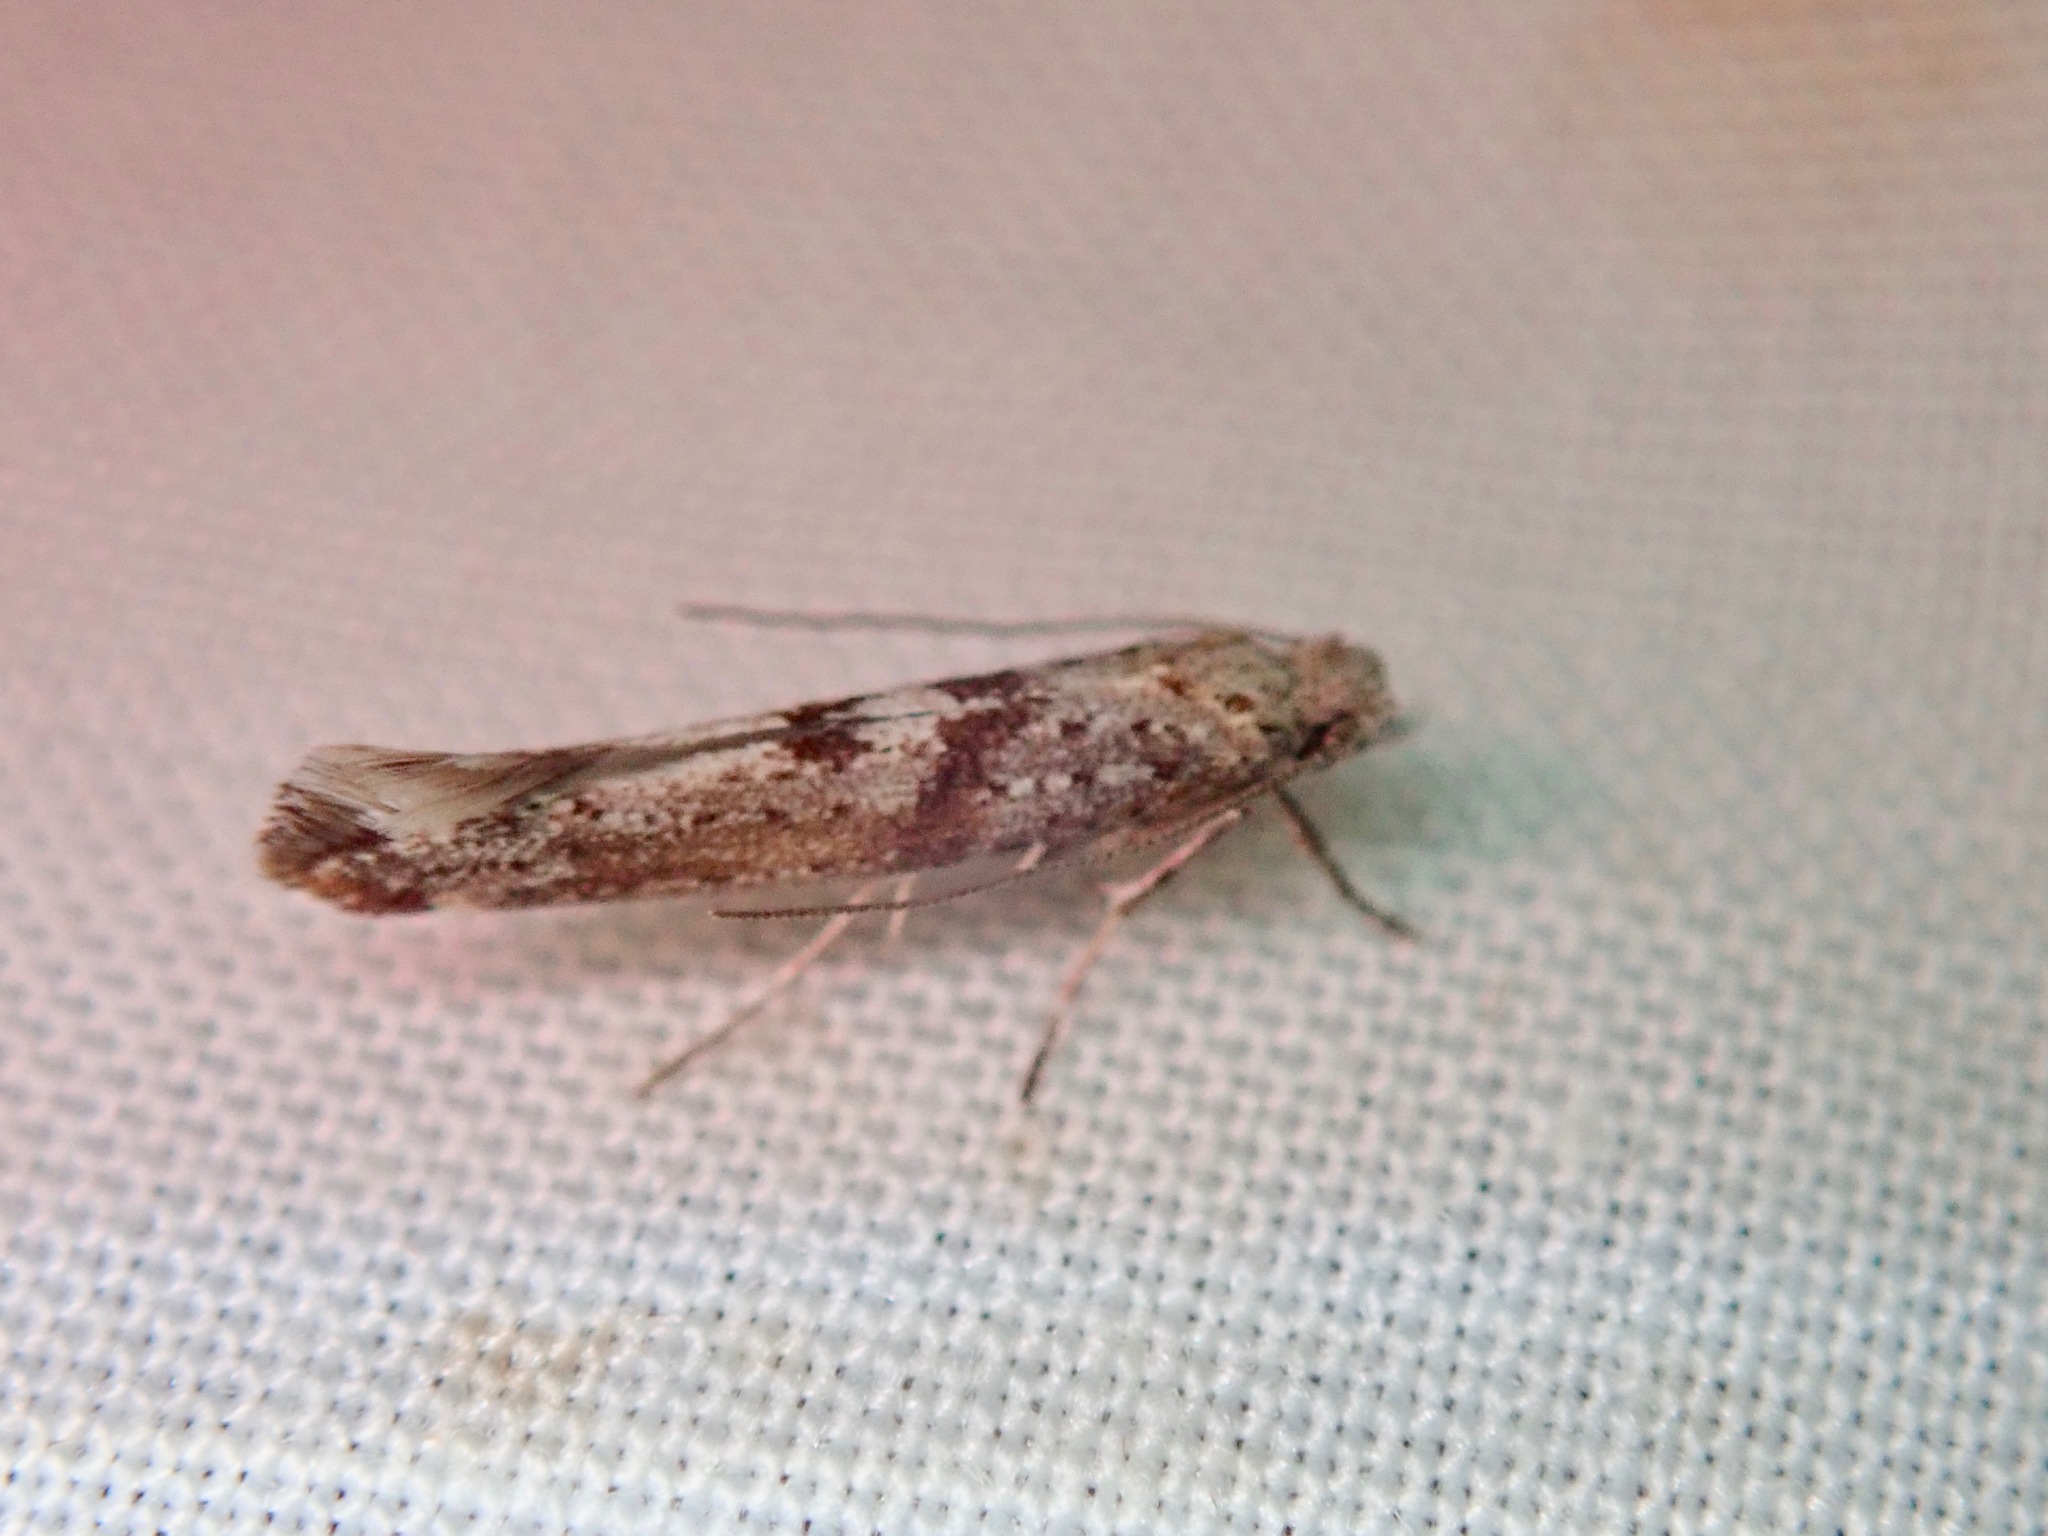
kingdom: Animalia
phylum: Arthropoda
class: Insecta
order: Lepidoptera
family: Yponomeutidae
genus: Zelleria
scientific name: Zelleria rorida
